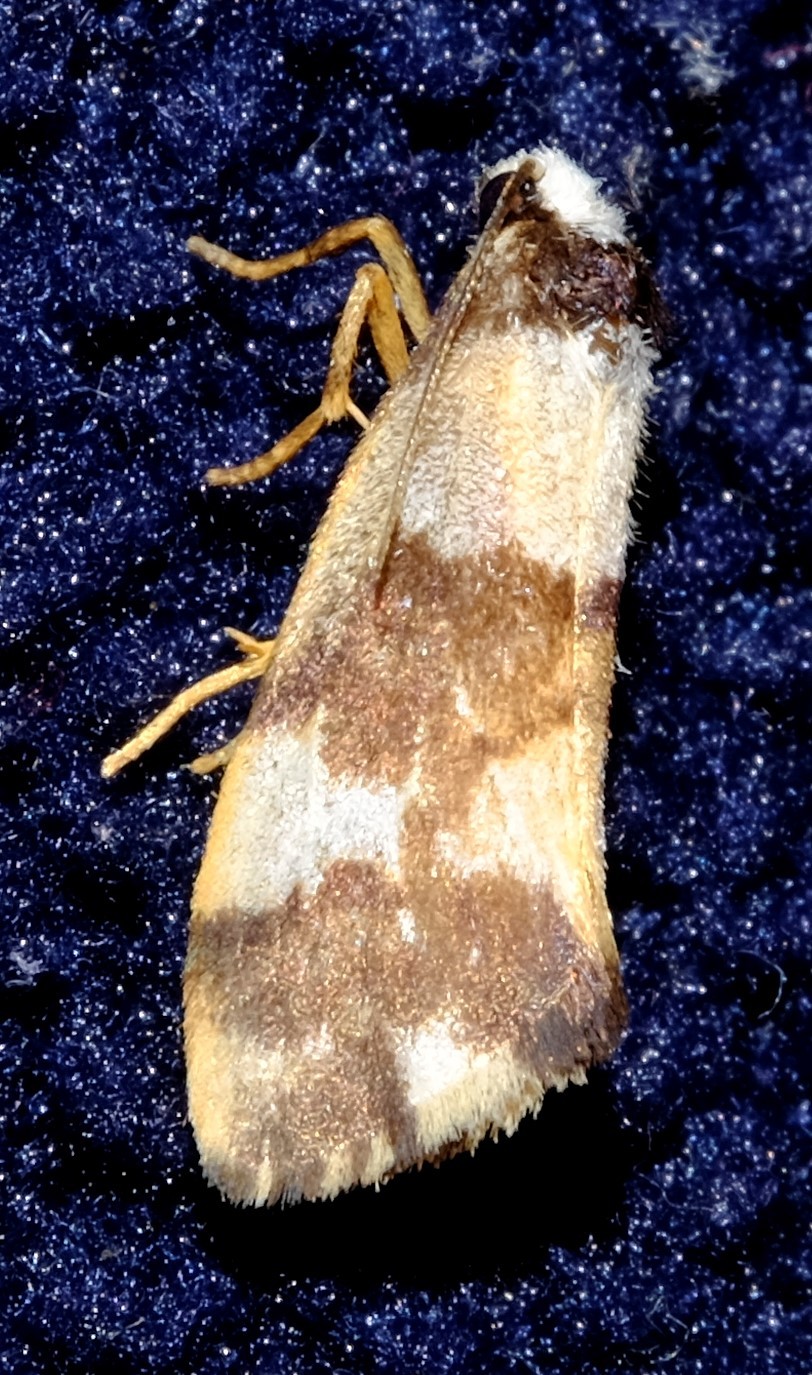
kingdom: Animalia
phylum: Arthropoda
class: Insecta
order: Lepidoptera
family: Erebidae
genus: Philenora
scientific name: Philenora aspectalella
